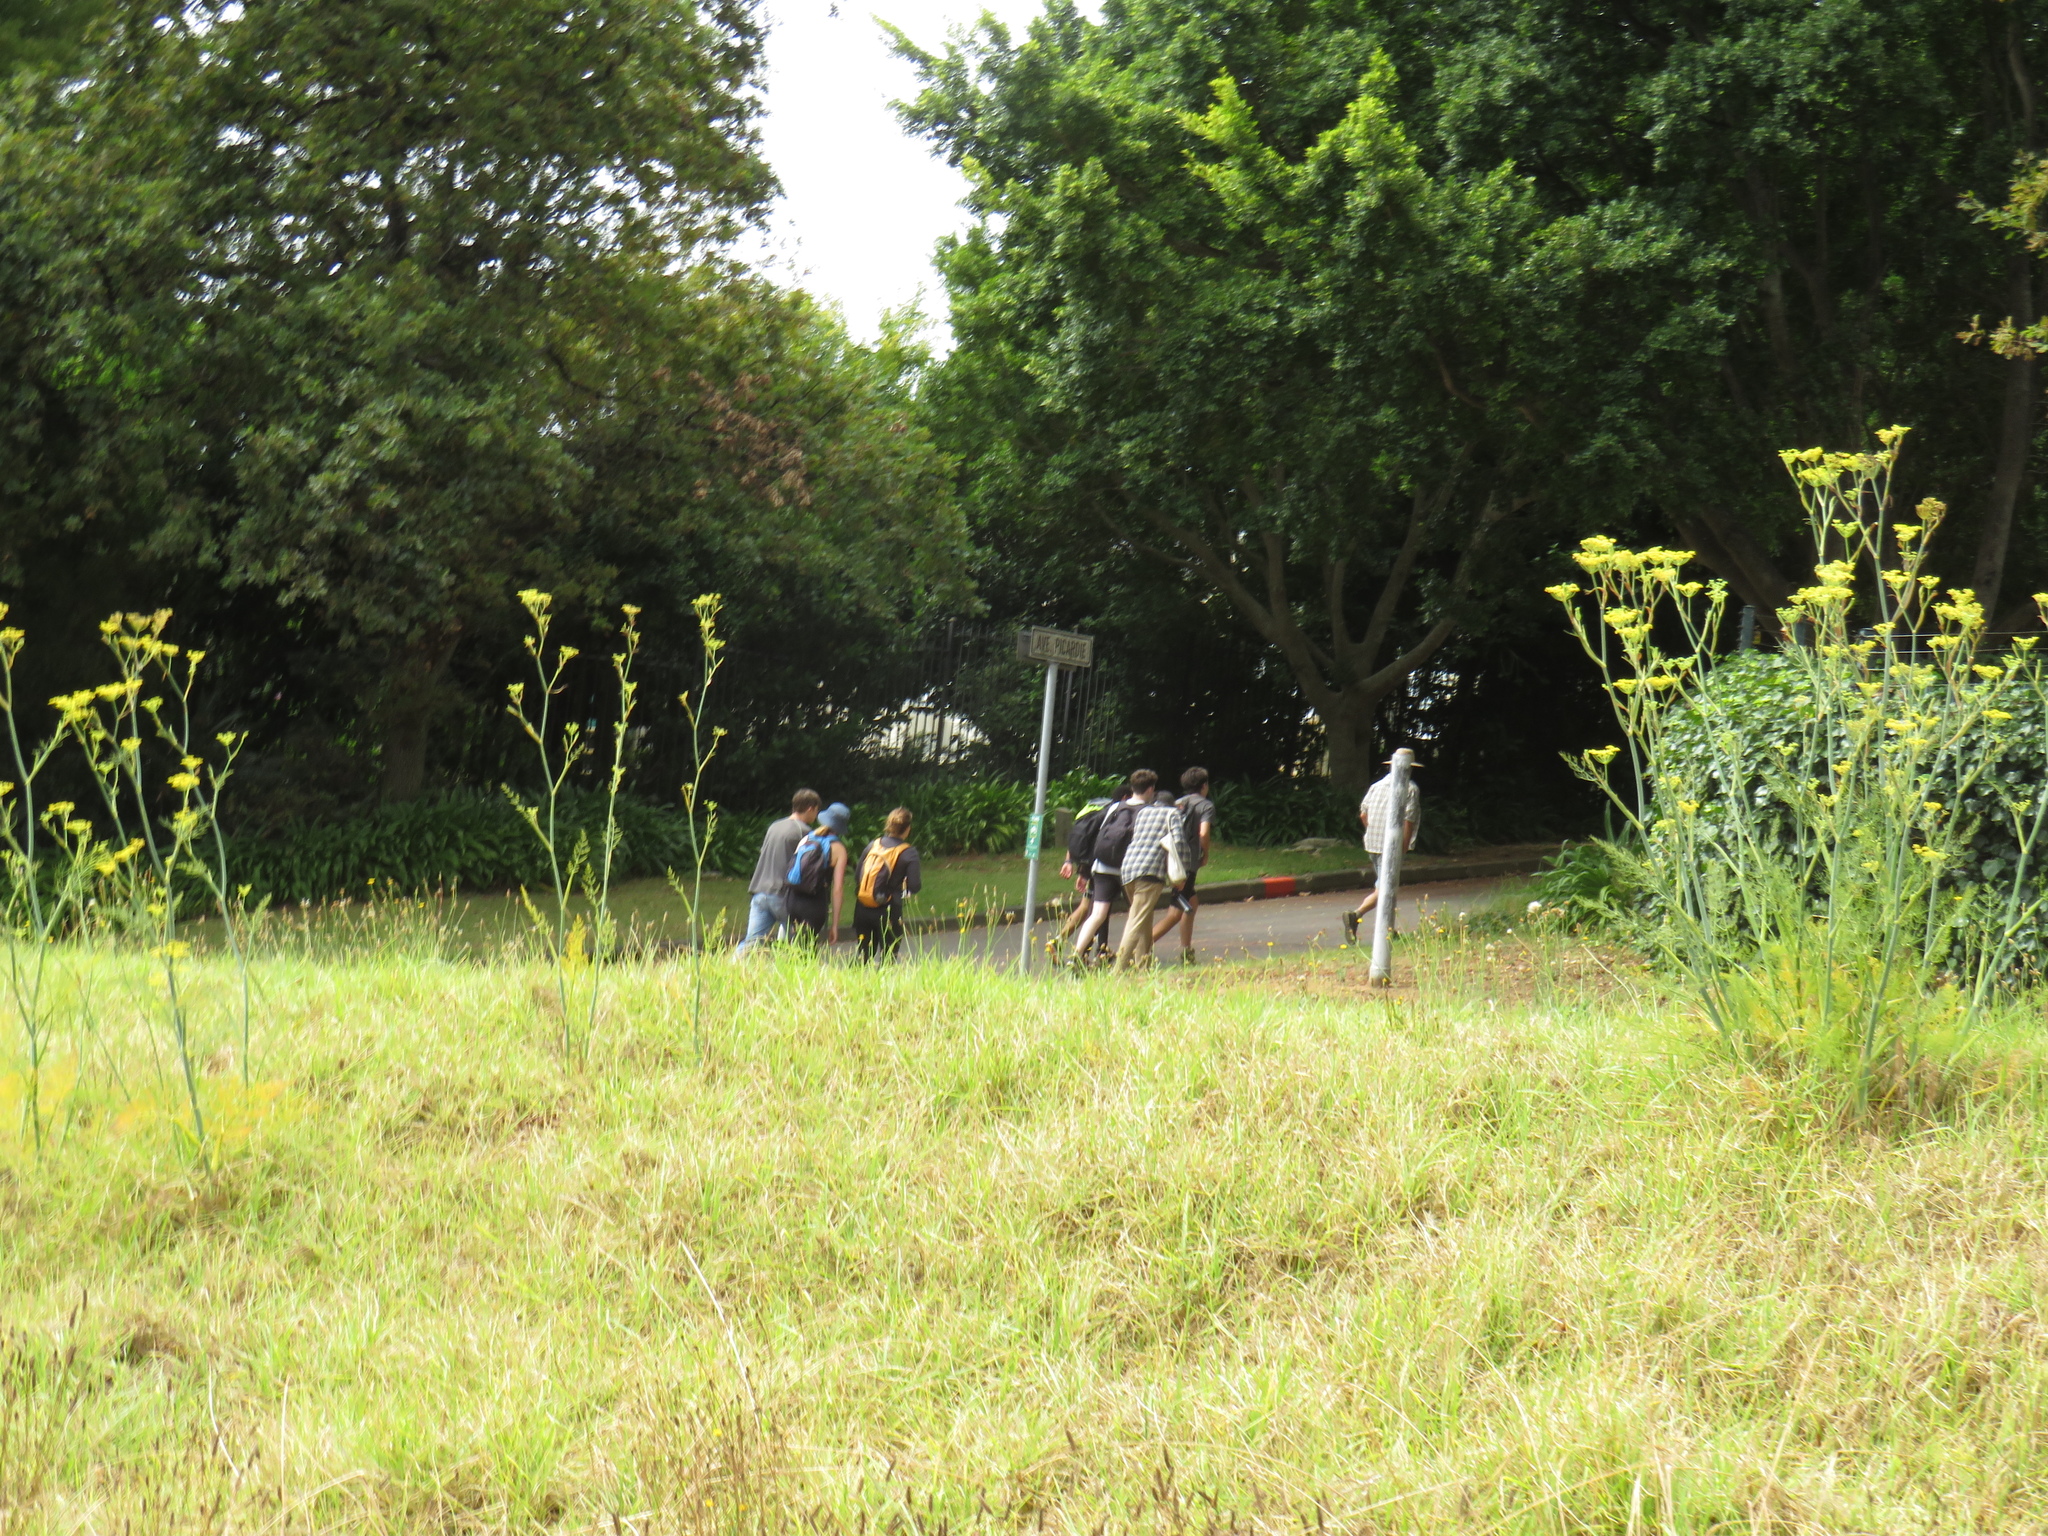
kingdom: Plantae
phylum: Tracheophyta
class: Magnoliopsida
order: Apiales
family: Apiaceae
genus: Foeniculum
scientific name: Foeniculum vulgare
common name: Fennel
